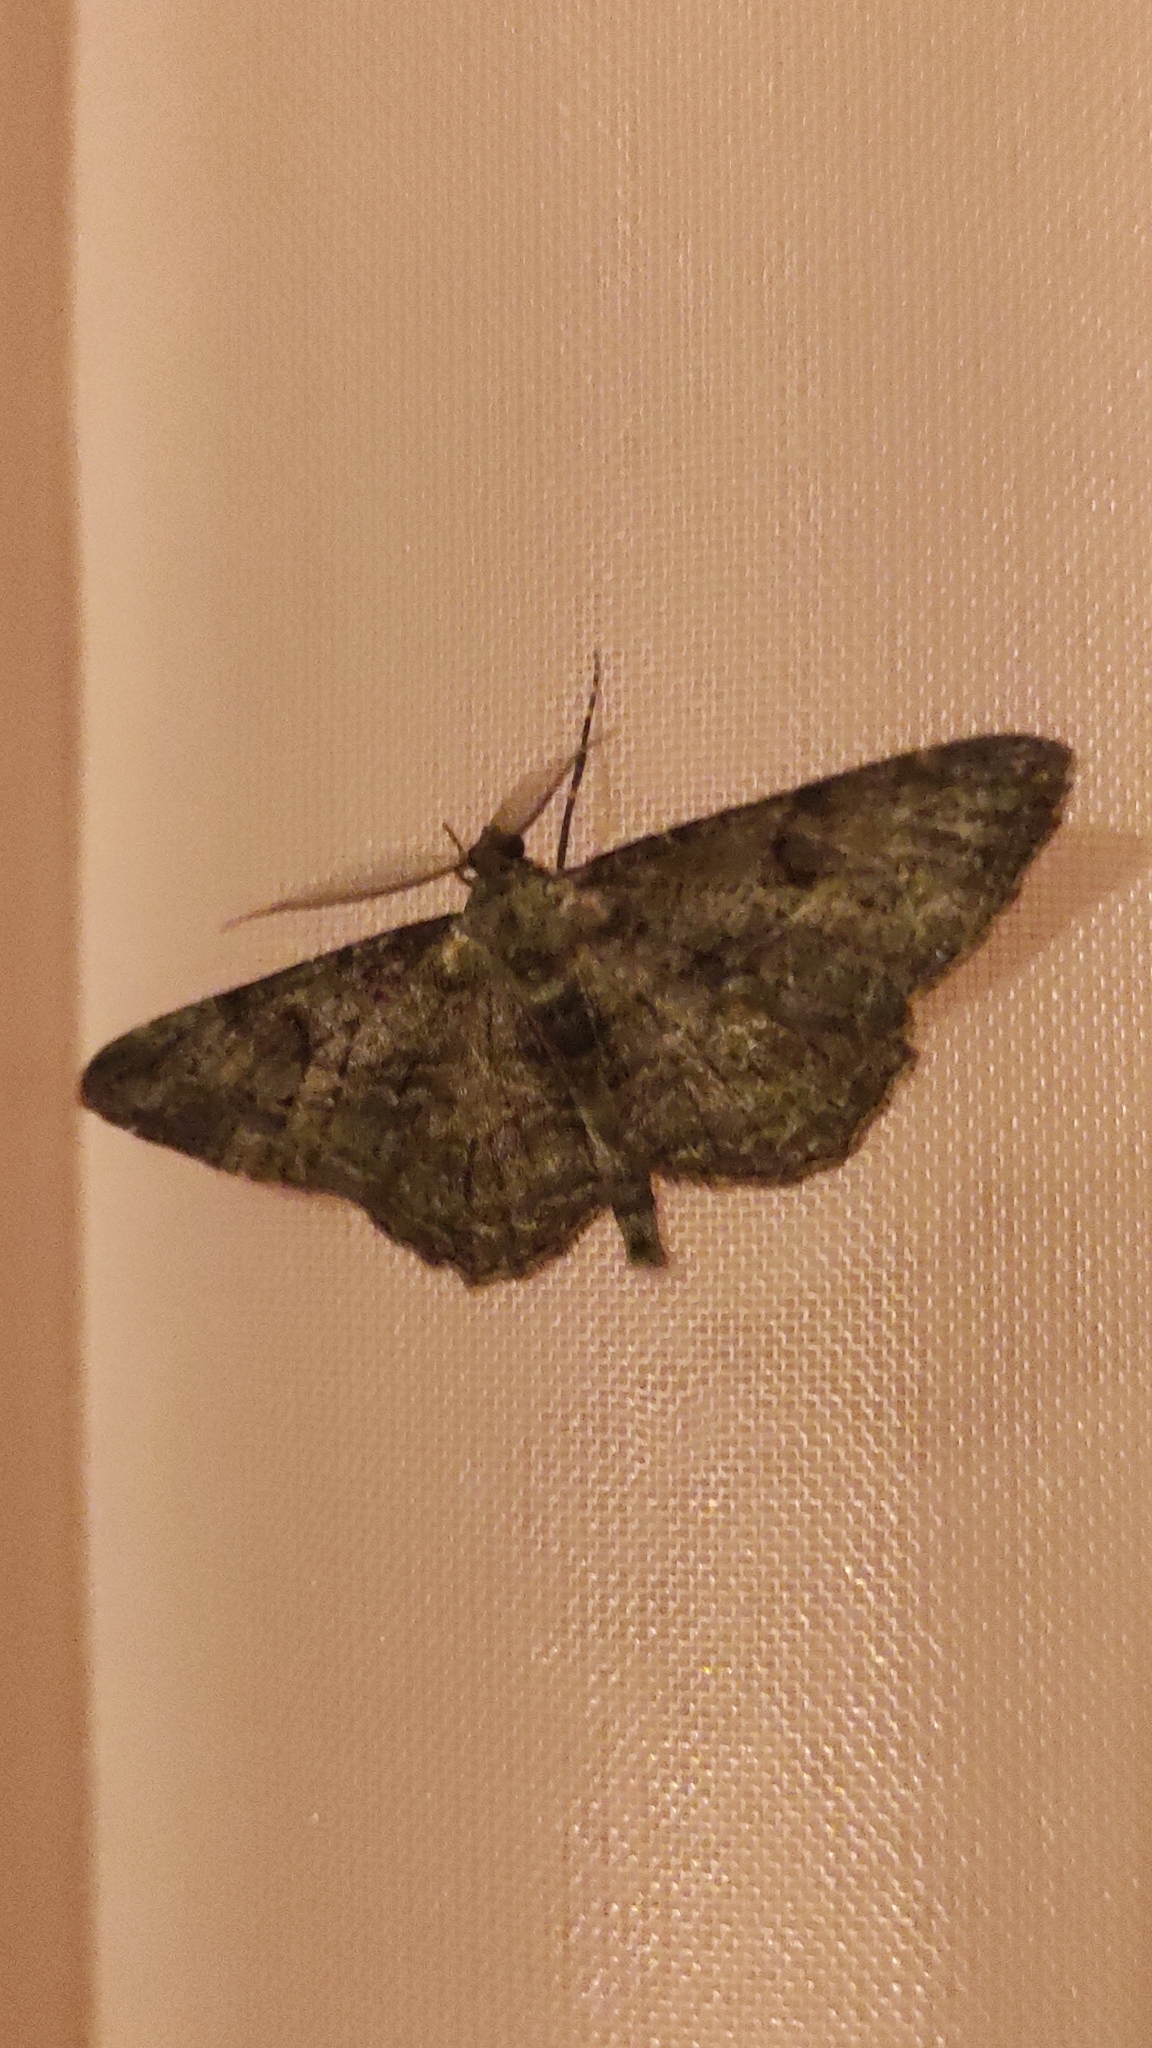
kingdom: Animalia
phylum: Arthropoda
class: Insecta
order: Lepidoptera
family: Geometridae
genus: Peribatodes
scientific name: Peribatodes rhomboidaria
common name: Willow beauty
